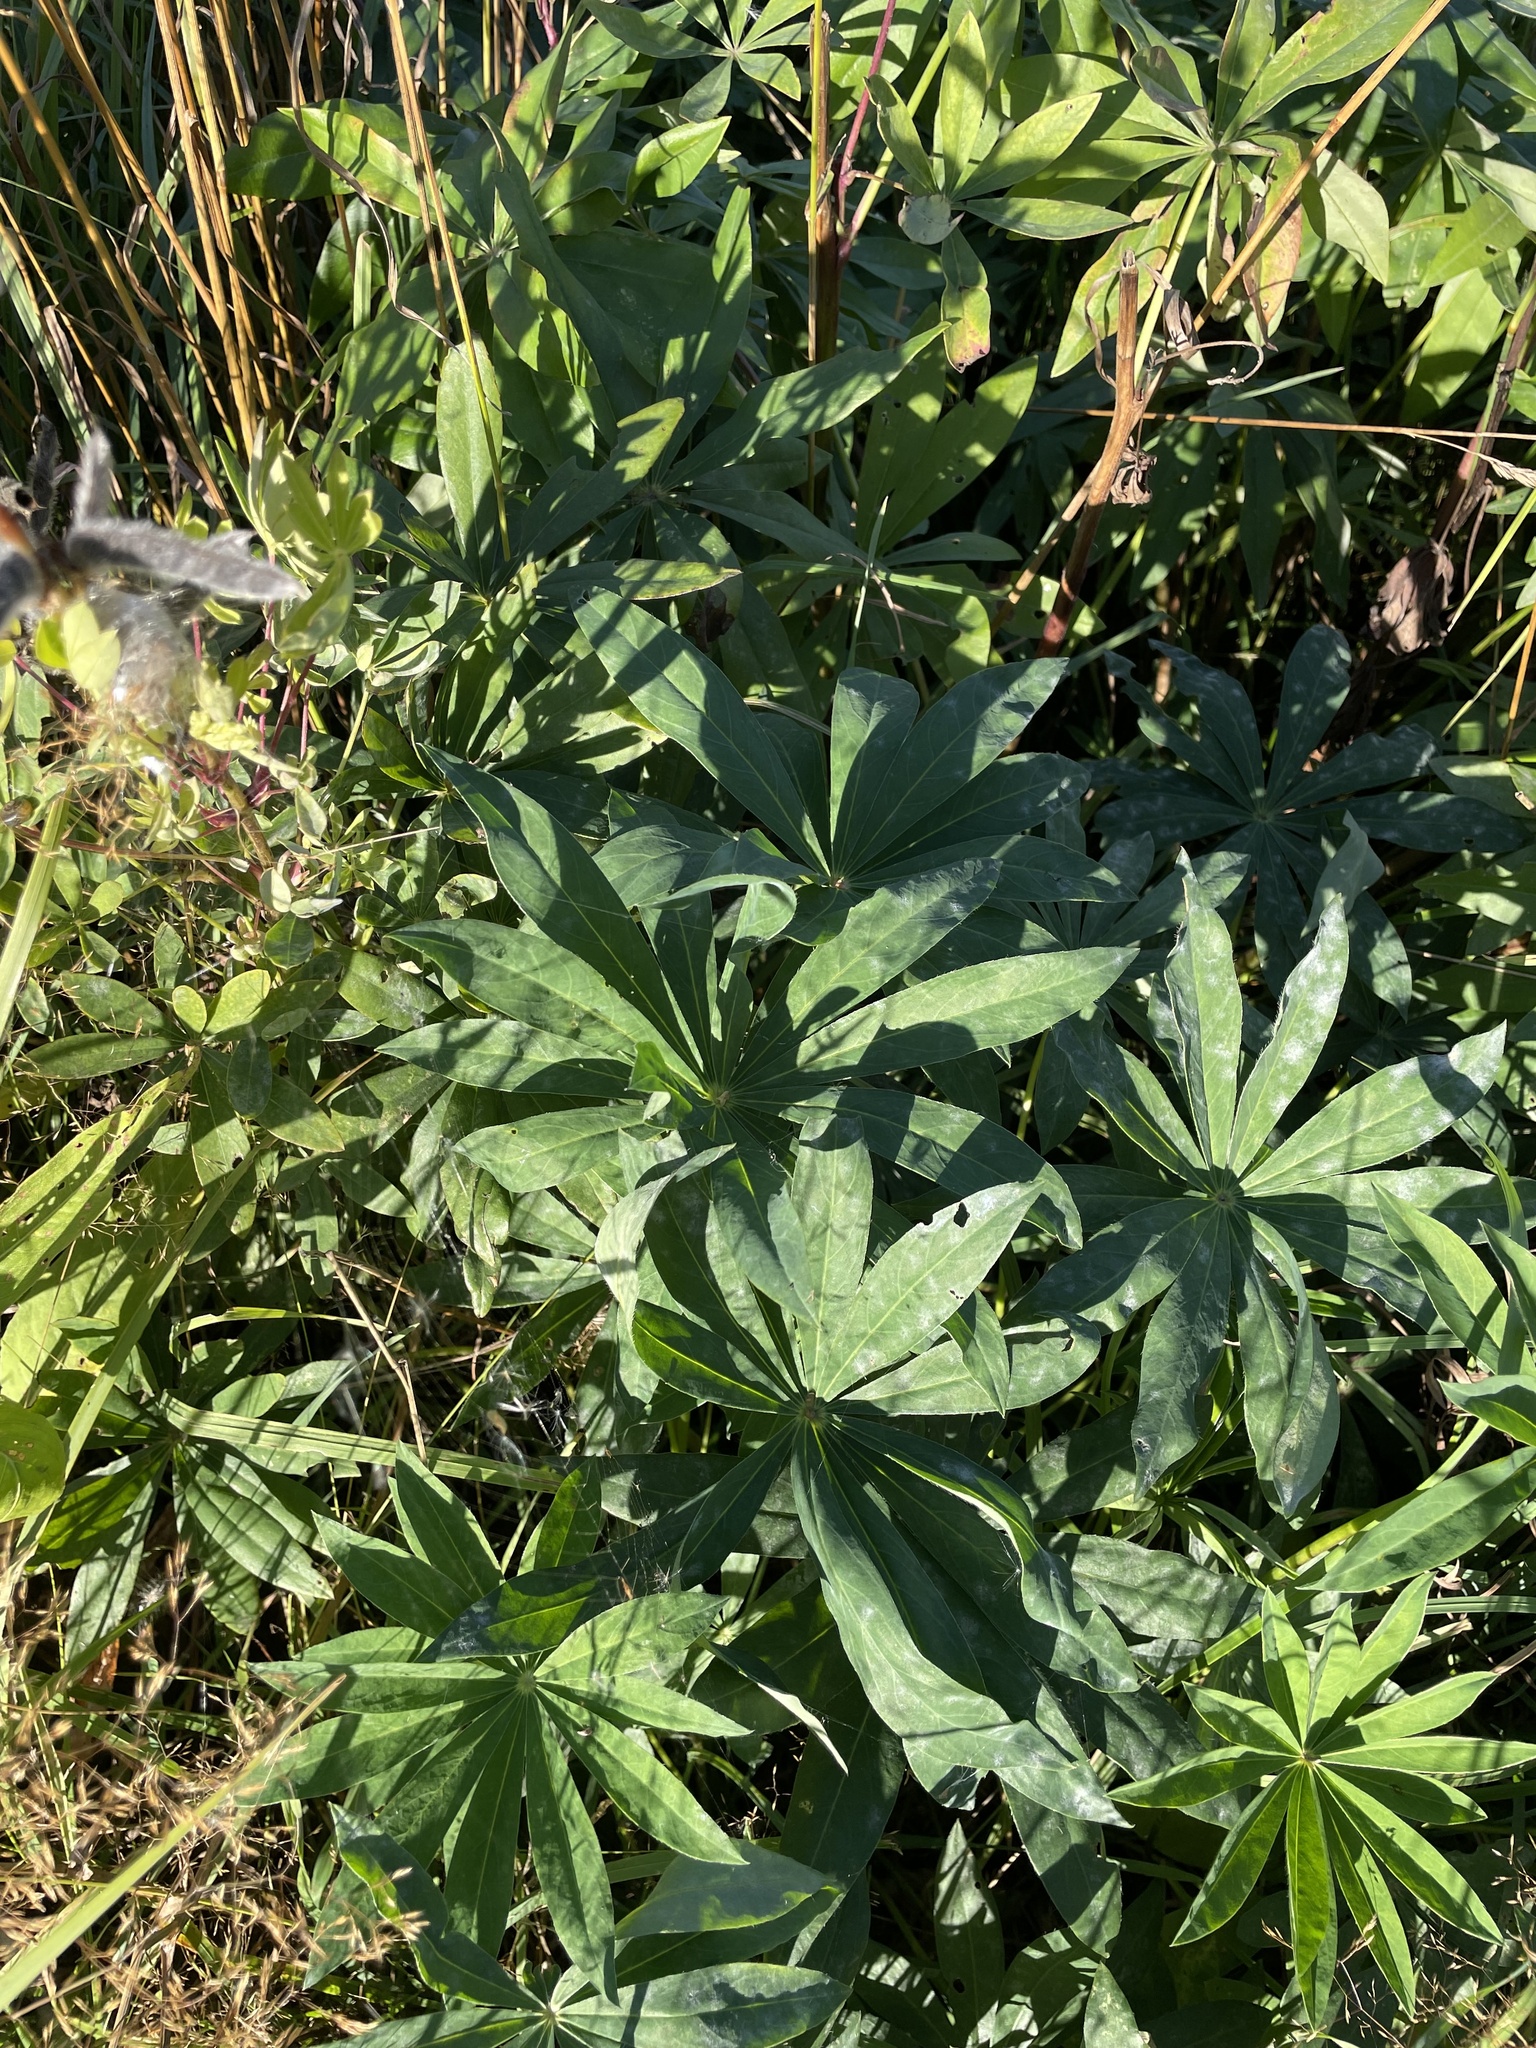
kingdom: Plantae
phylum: Tracheophyta
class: Magnoliopsida
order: Fabales
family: Fabaceae
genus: Lupinus
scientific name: Lupinus polyphyllus
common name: Garden lupin
